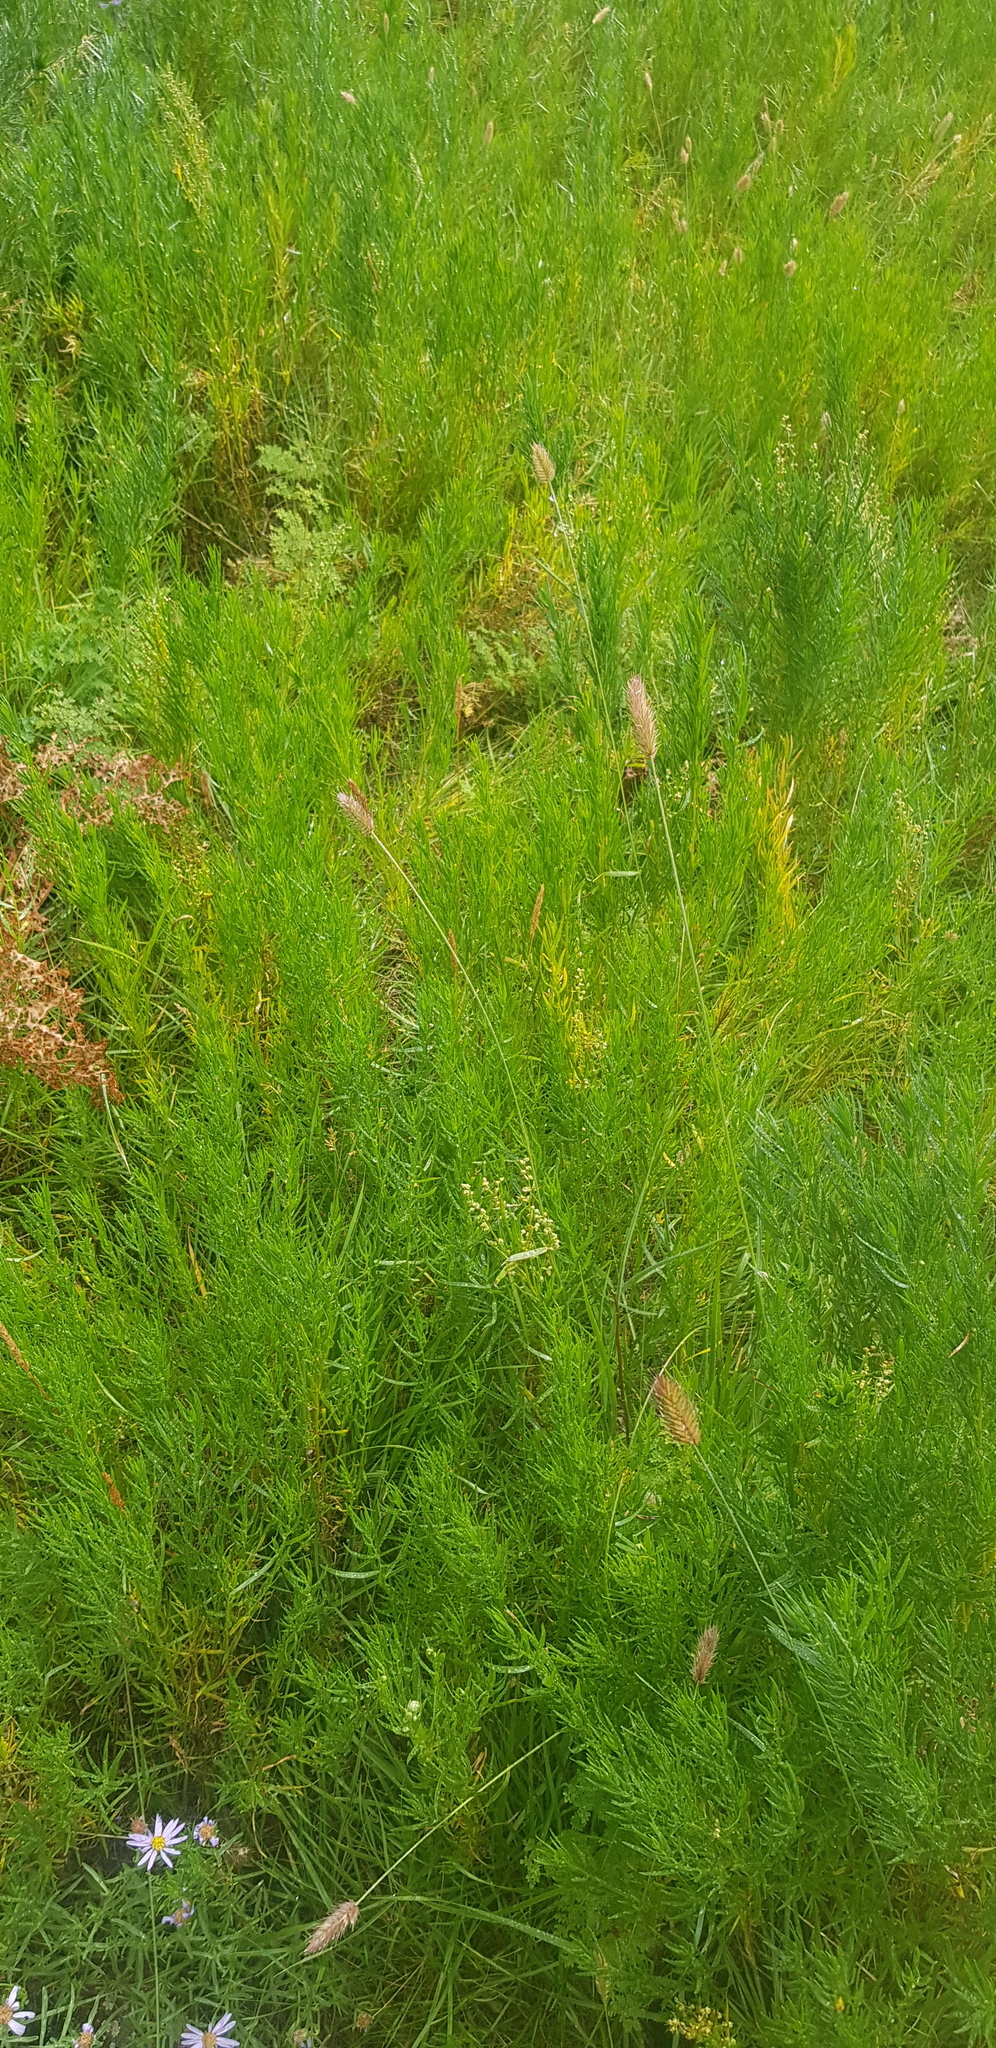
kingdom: Plantae
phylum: Tracheophyta
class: Magnoliopsida
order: Asterales
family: Asteraceae
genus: Artemisia
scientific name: Artemisia dracunculus
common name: Tarragon
